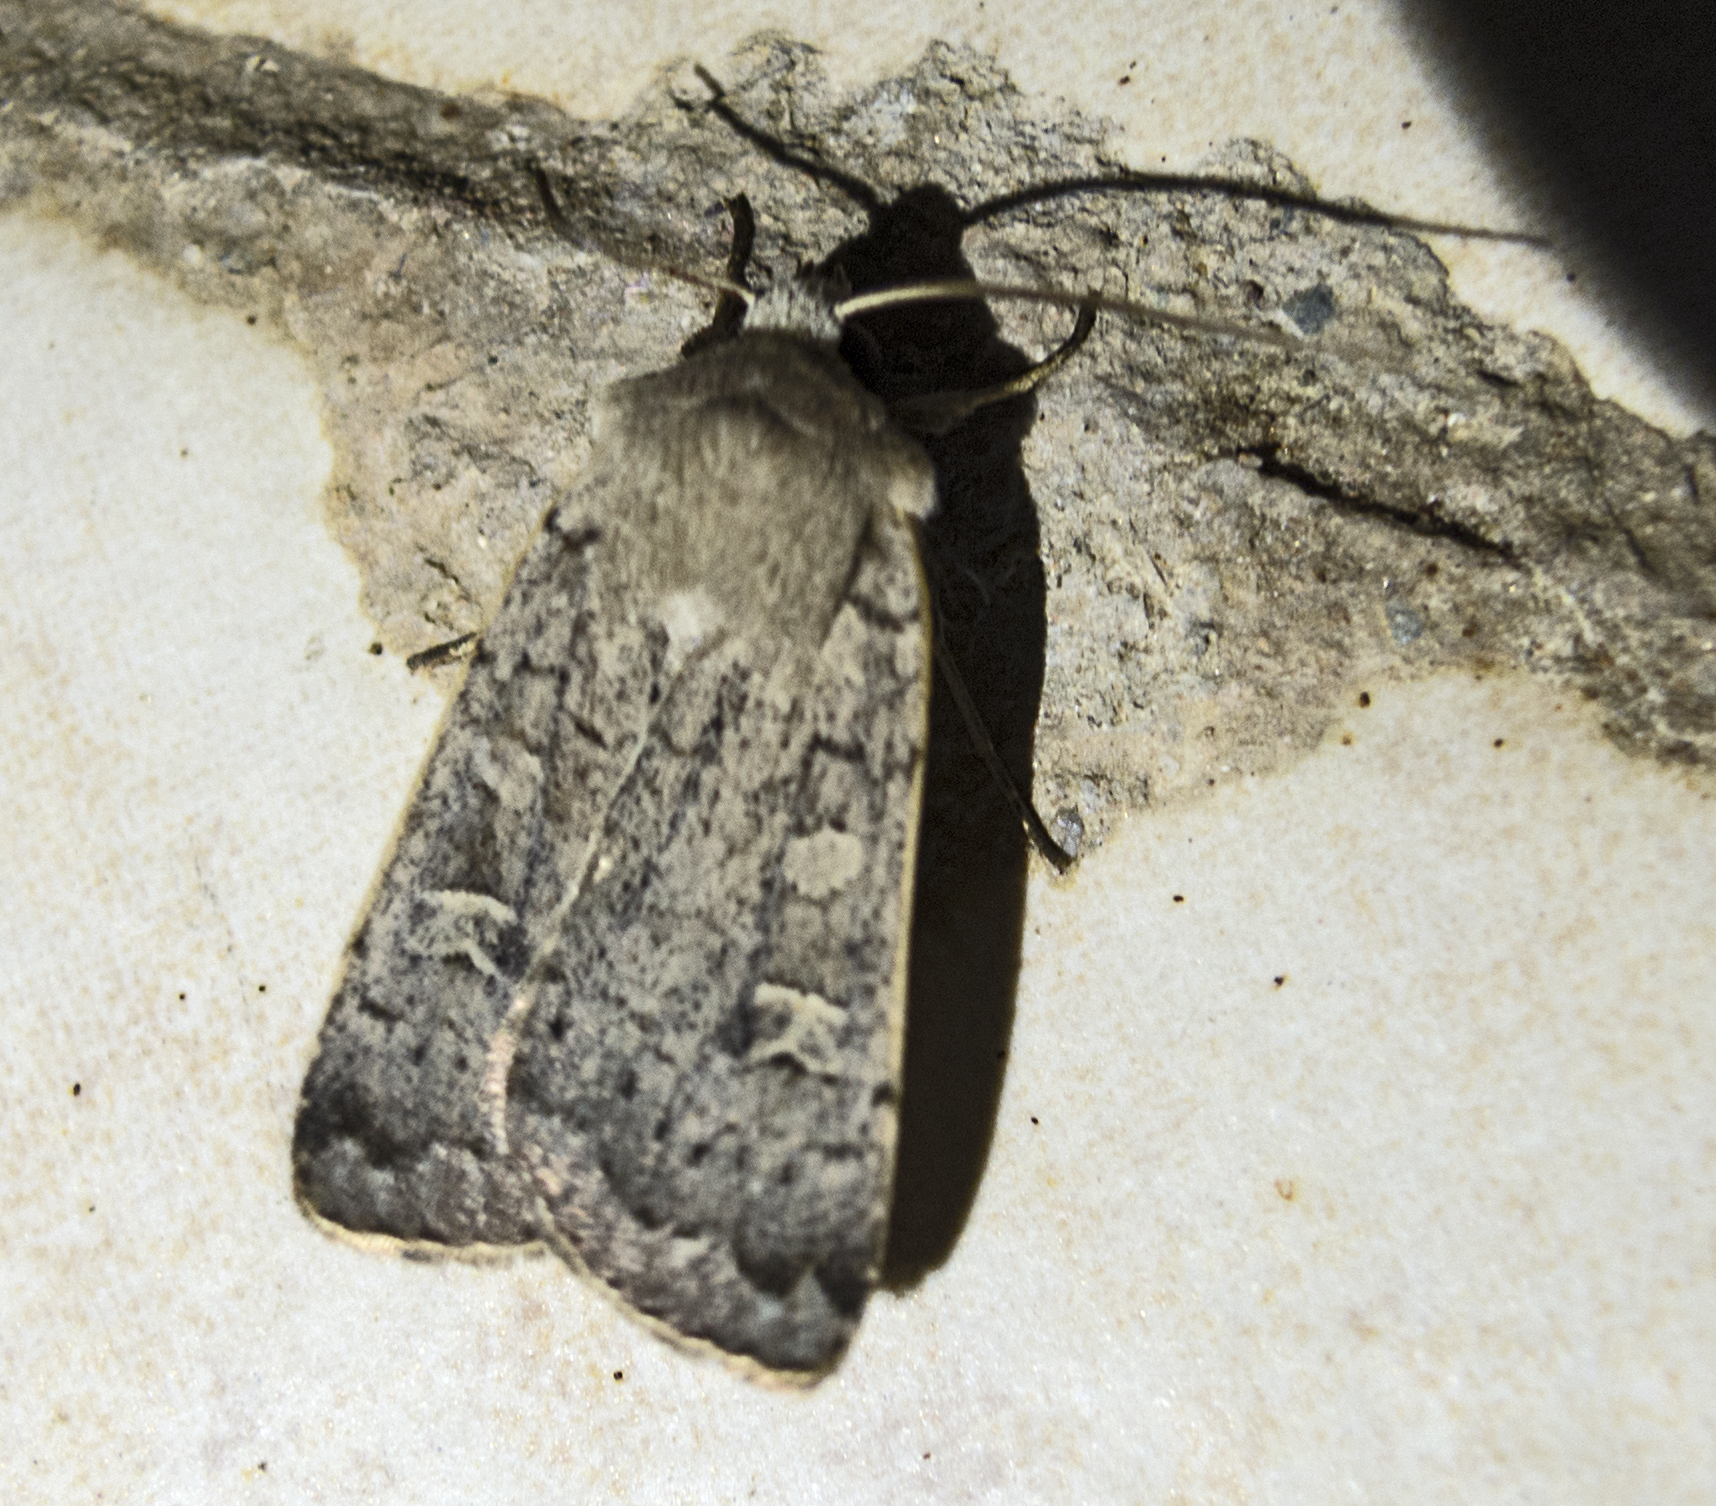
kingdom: Animalia
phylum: Arthropoda
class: Insecta
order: Lepidoptera
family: Noctuidae
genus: Xestia
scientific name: Xestia xanthographa
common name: Square-spot rustic
